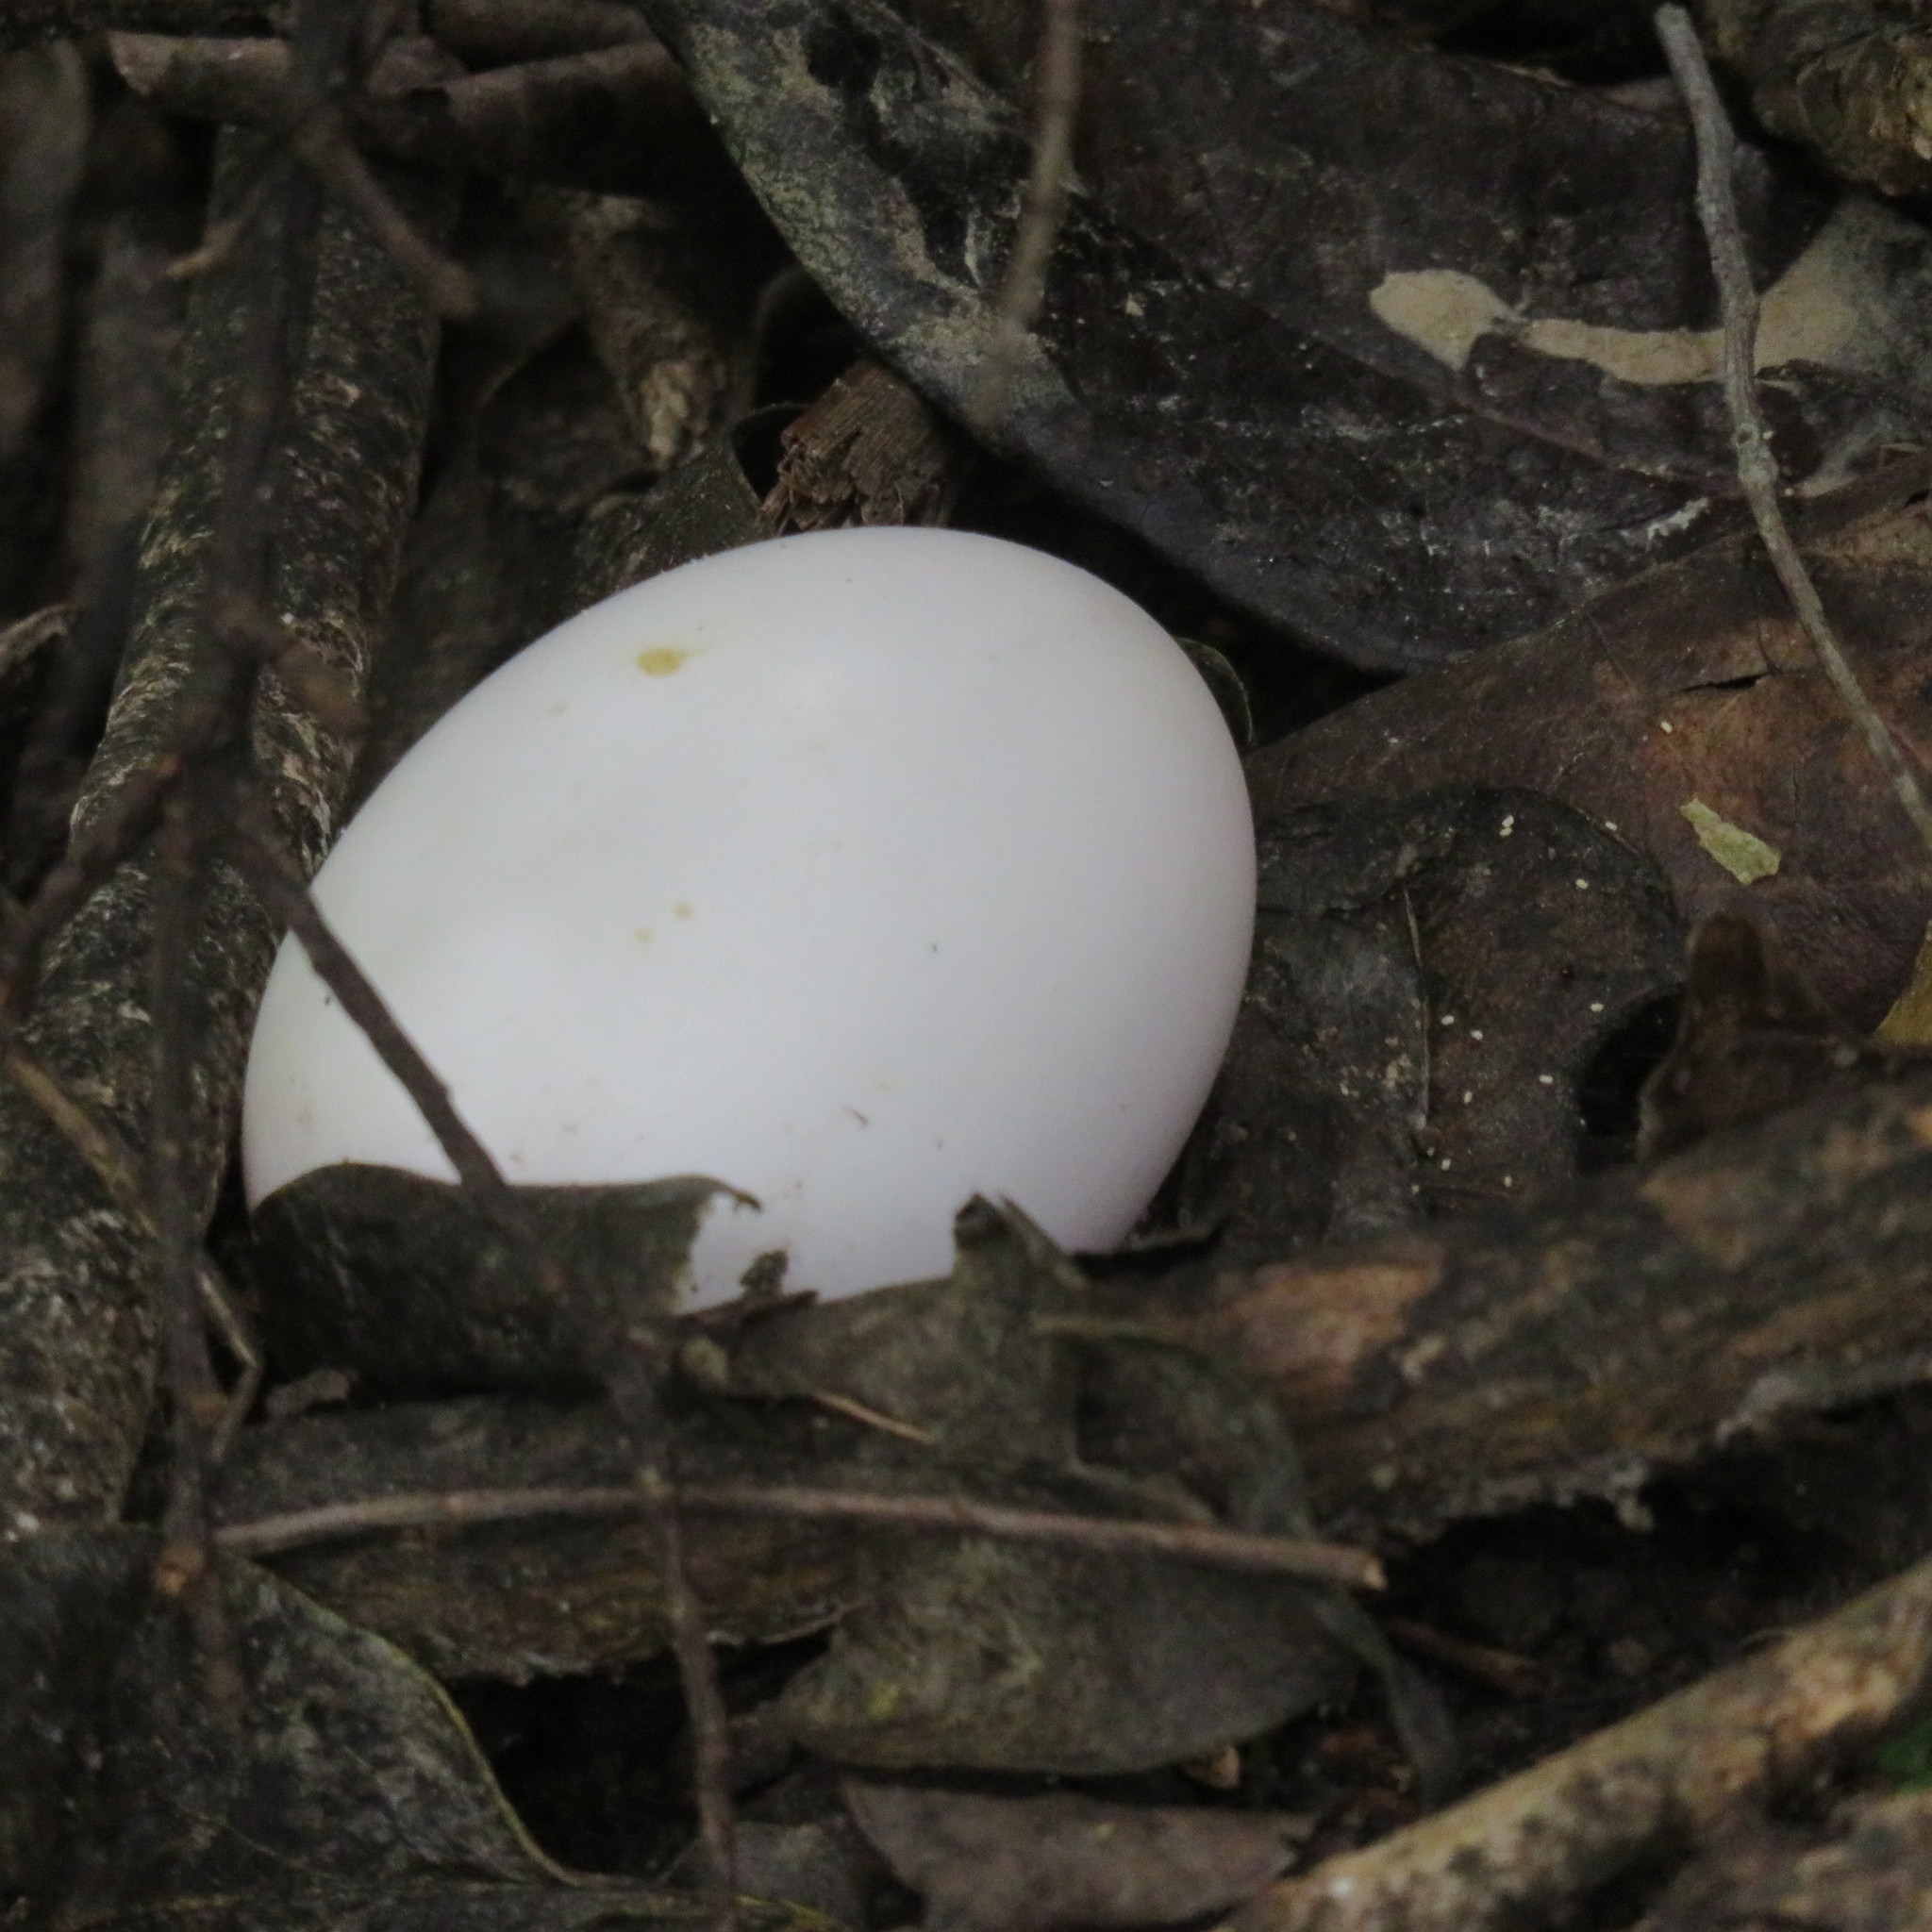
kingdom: Animalia
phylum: Chordata
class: Aves
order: Columbiformes
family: Columbidae
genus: Hemiphaga
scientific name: Hemiphaga novaeseelandiae
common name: New zealand pigeon
